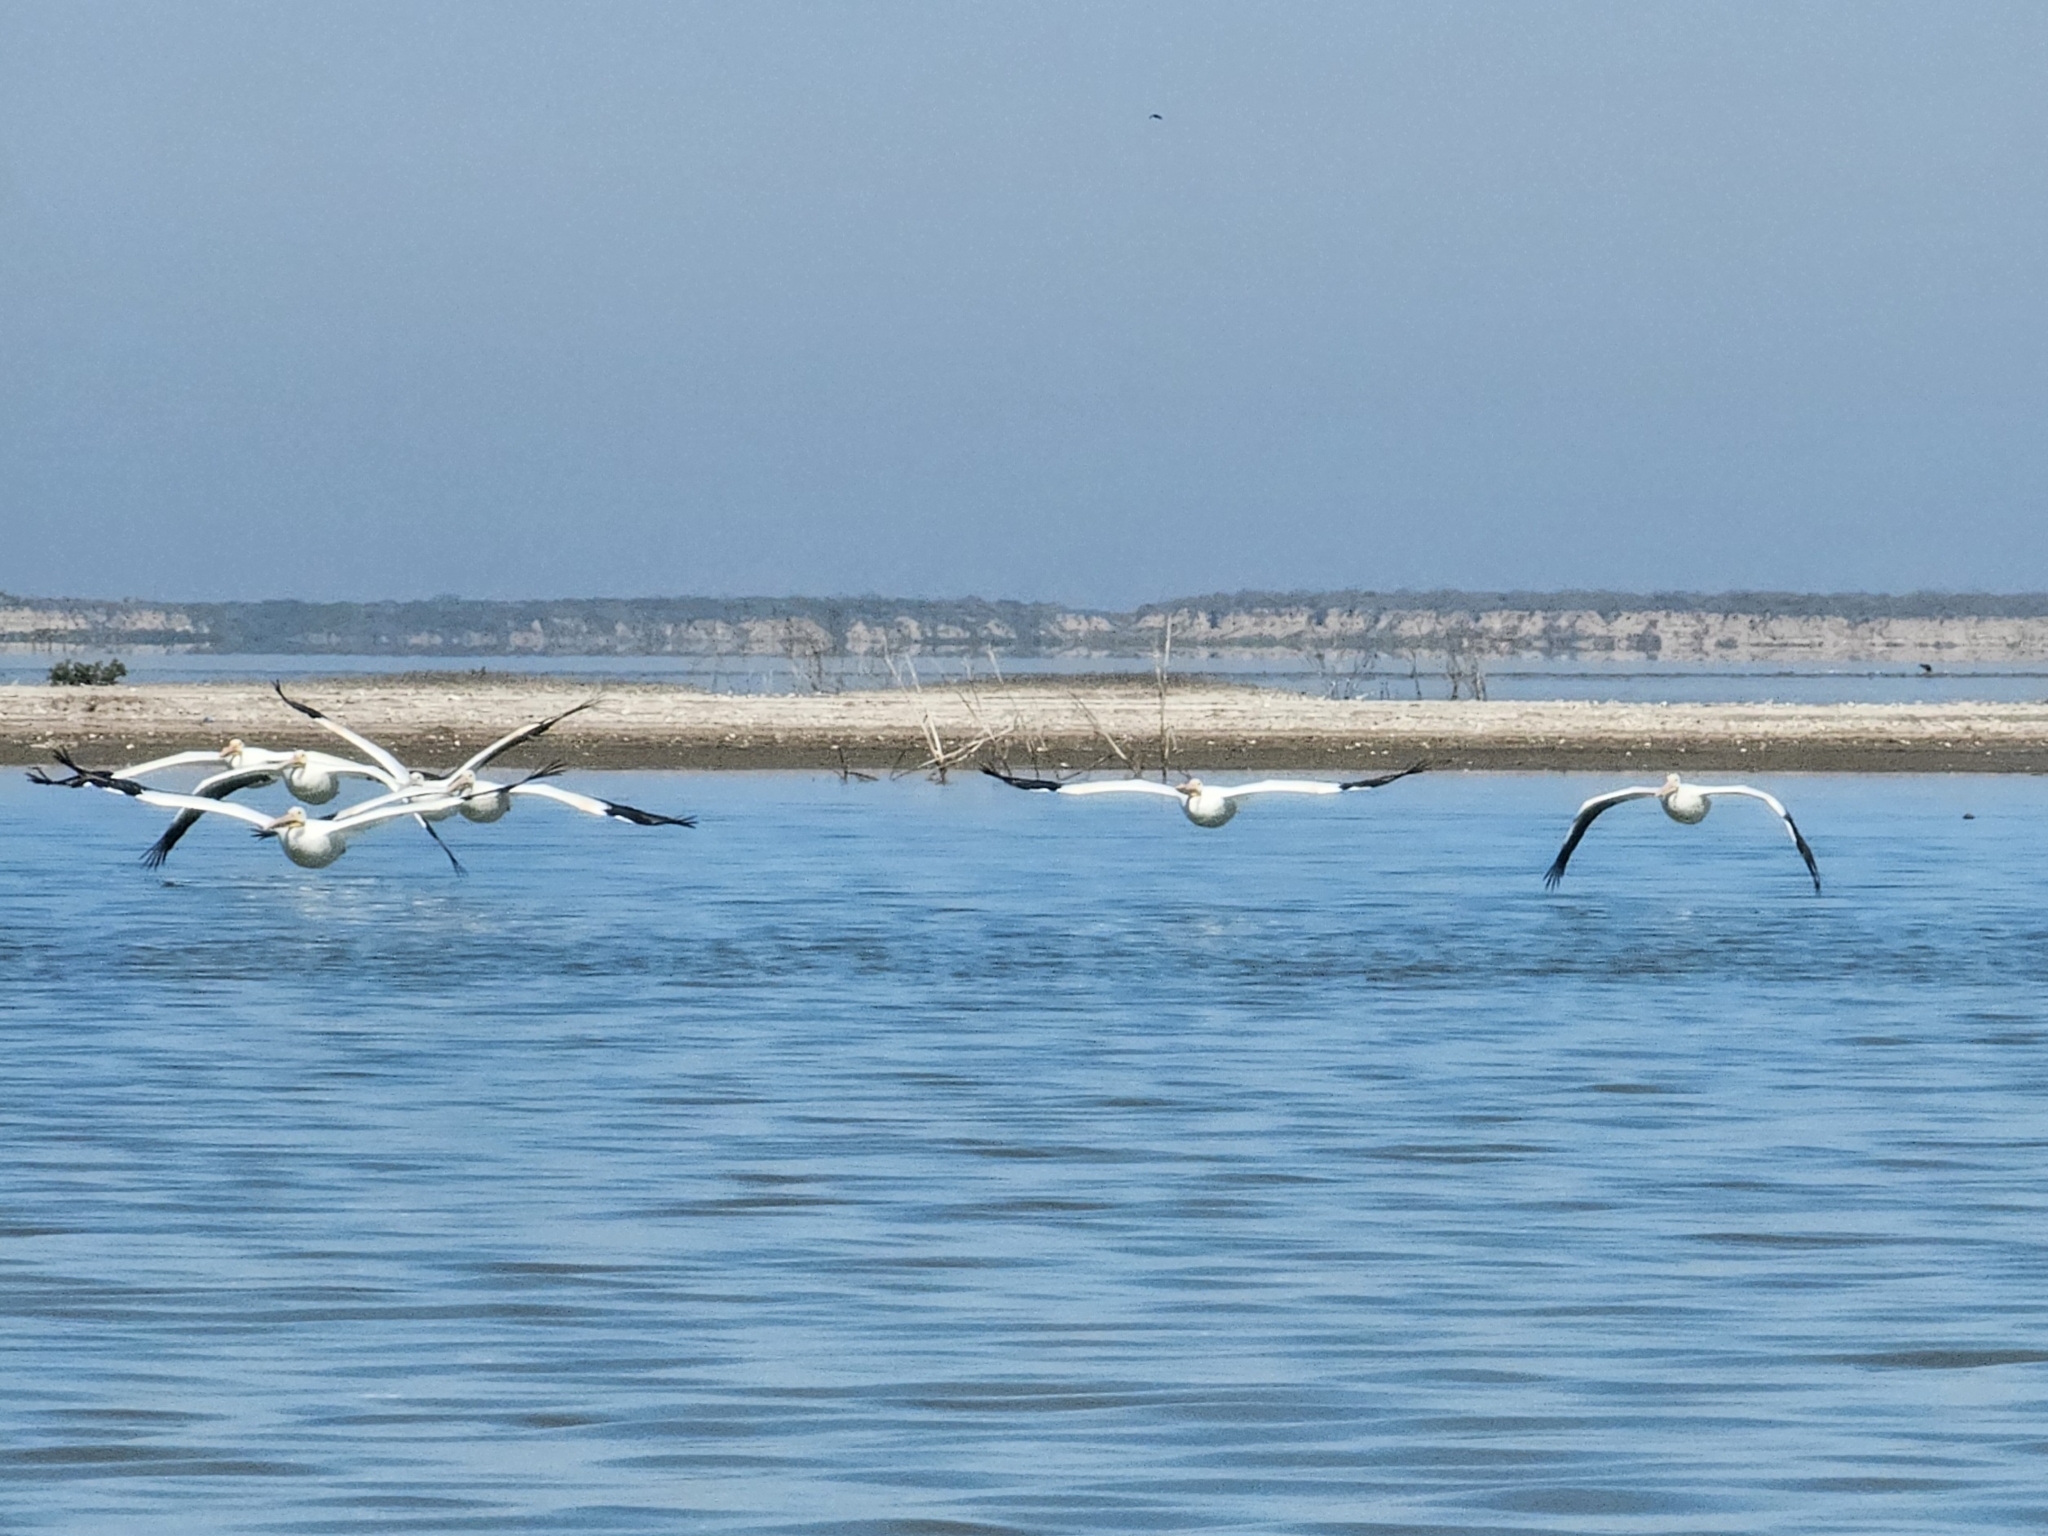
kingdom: Animalia
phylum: Chordata
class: Aves
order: Pelecaniformes
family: Pelecanidae
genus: Pelecanus
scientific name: Pelecanus erythrorhynchos
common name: American white pelican
